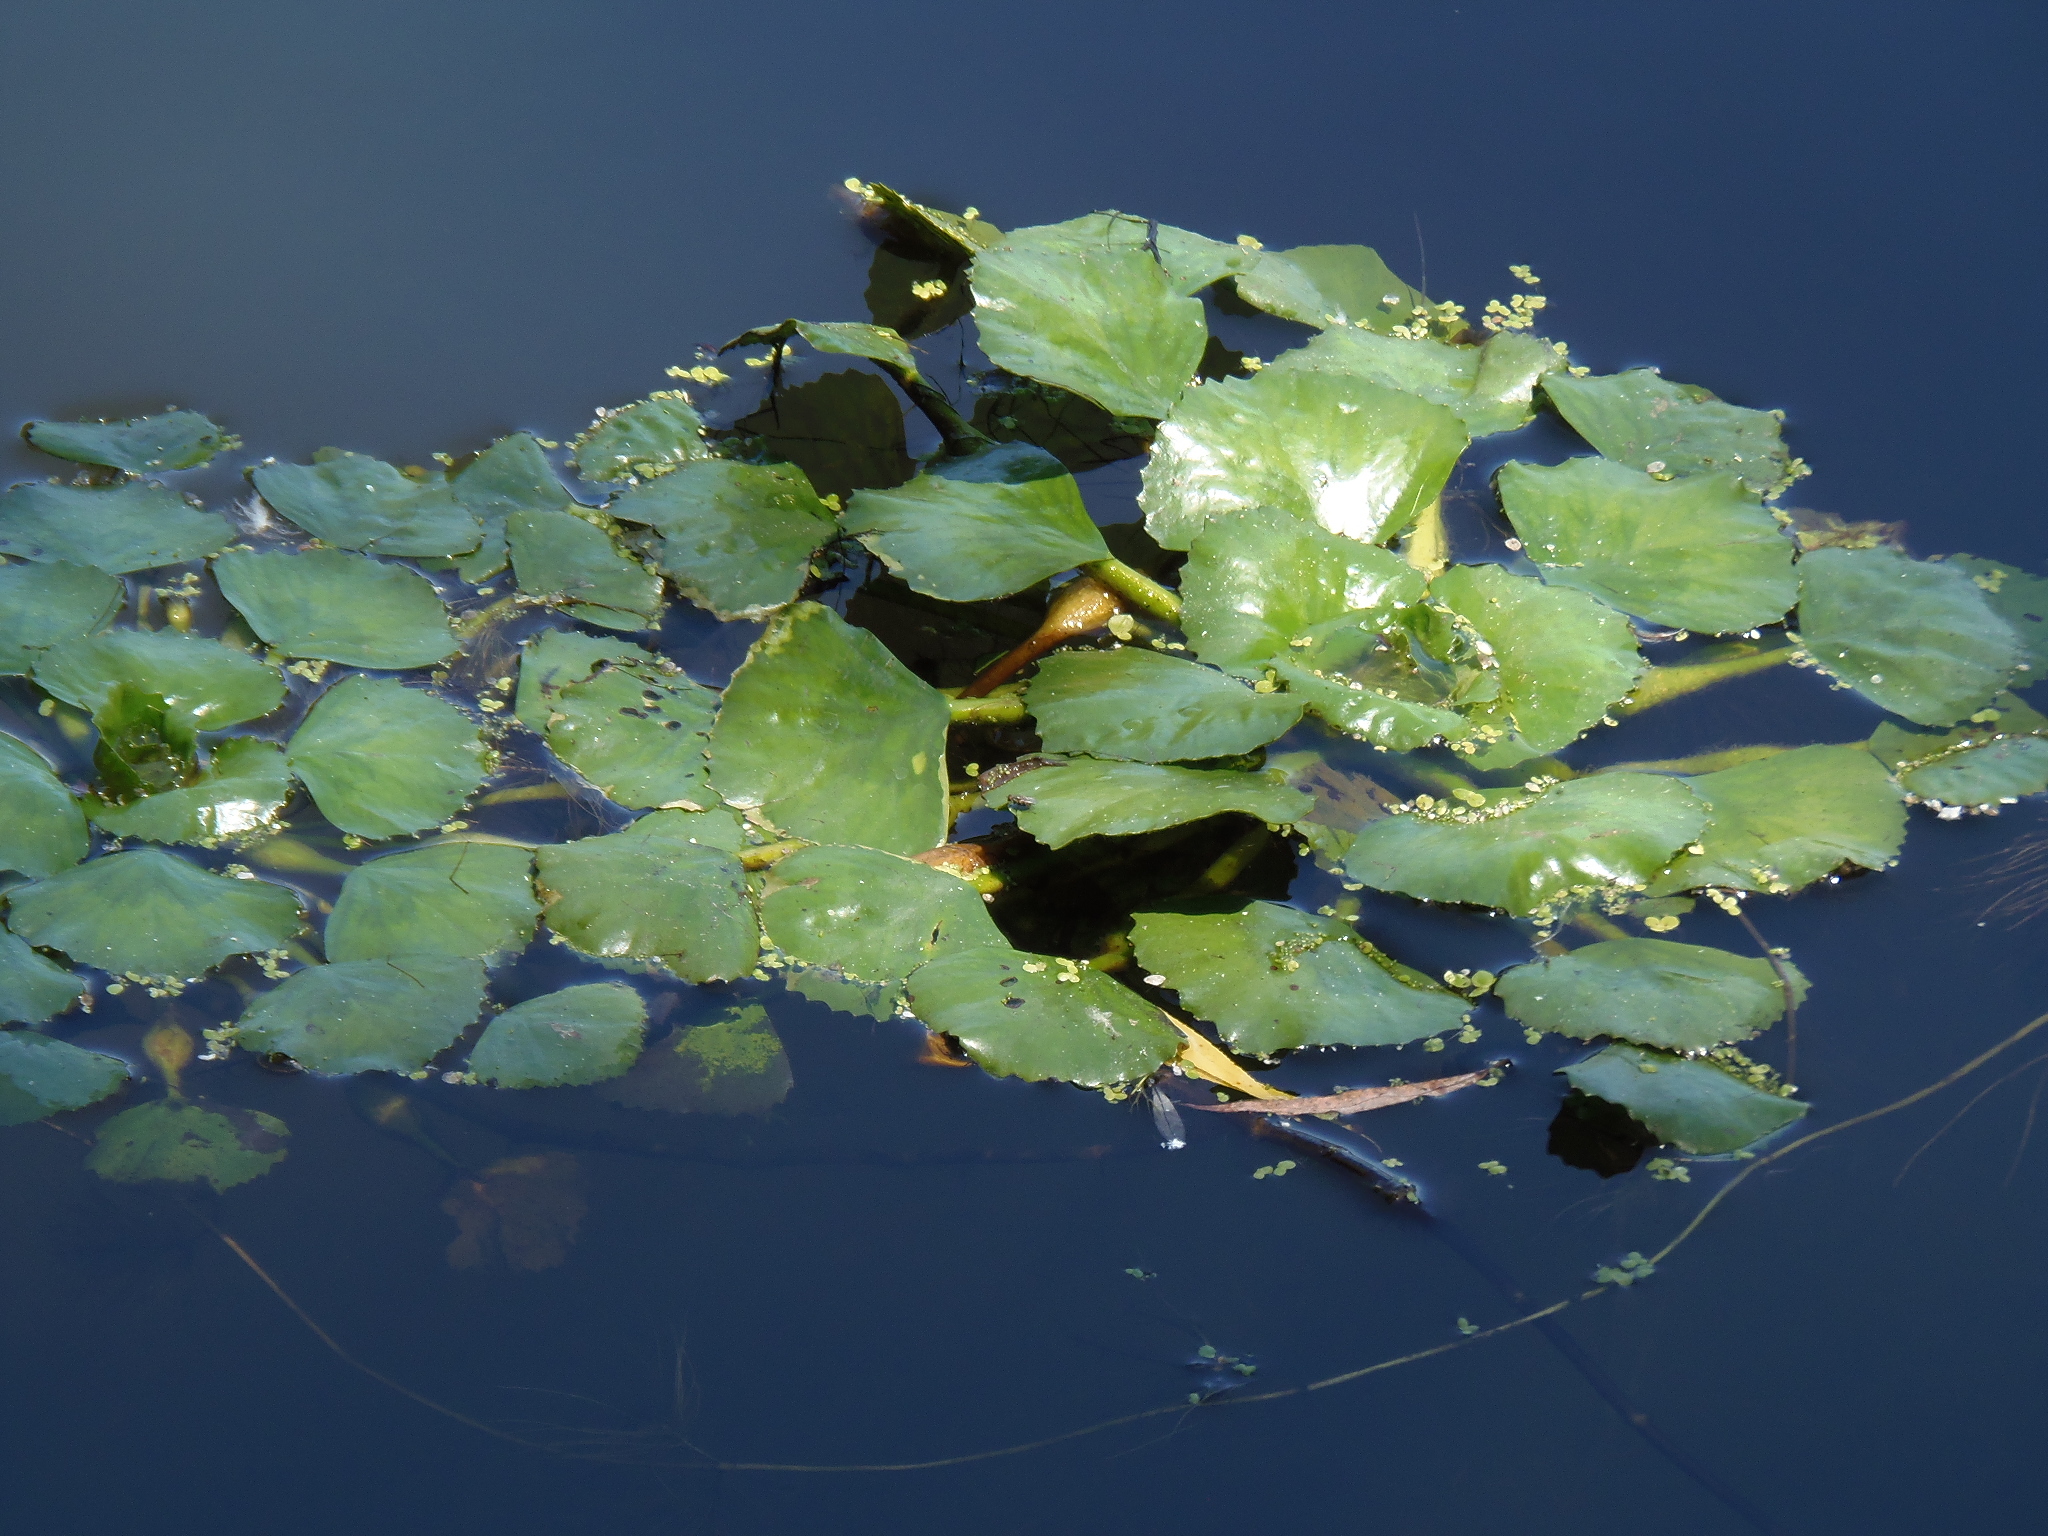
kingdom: Plantae
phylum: Tracheophyta
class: Magnoliopsida
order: Myrtales
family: Lythraceae
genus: Trapa
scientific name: Trapa natans
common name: Water chestnut
